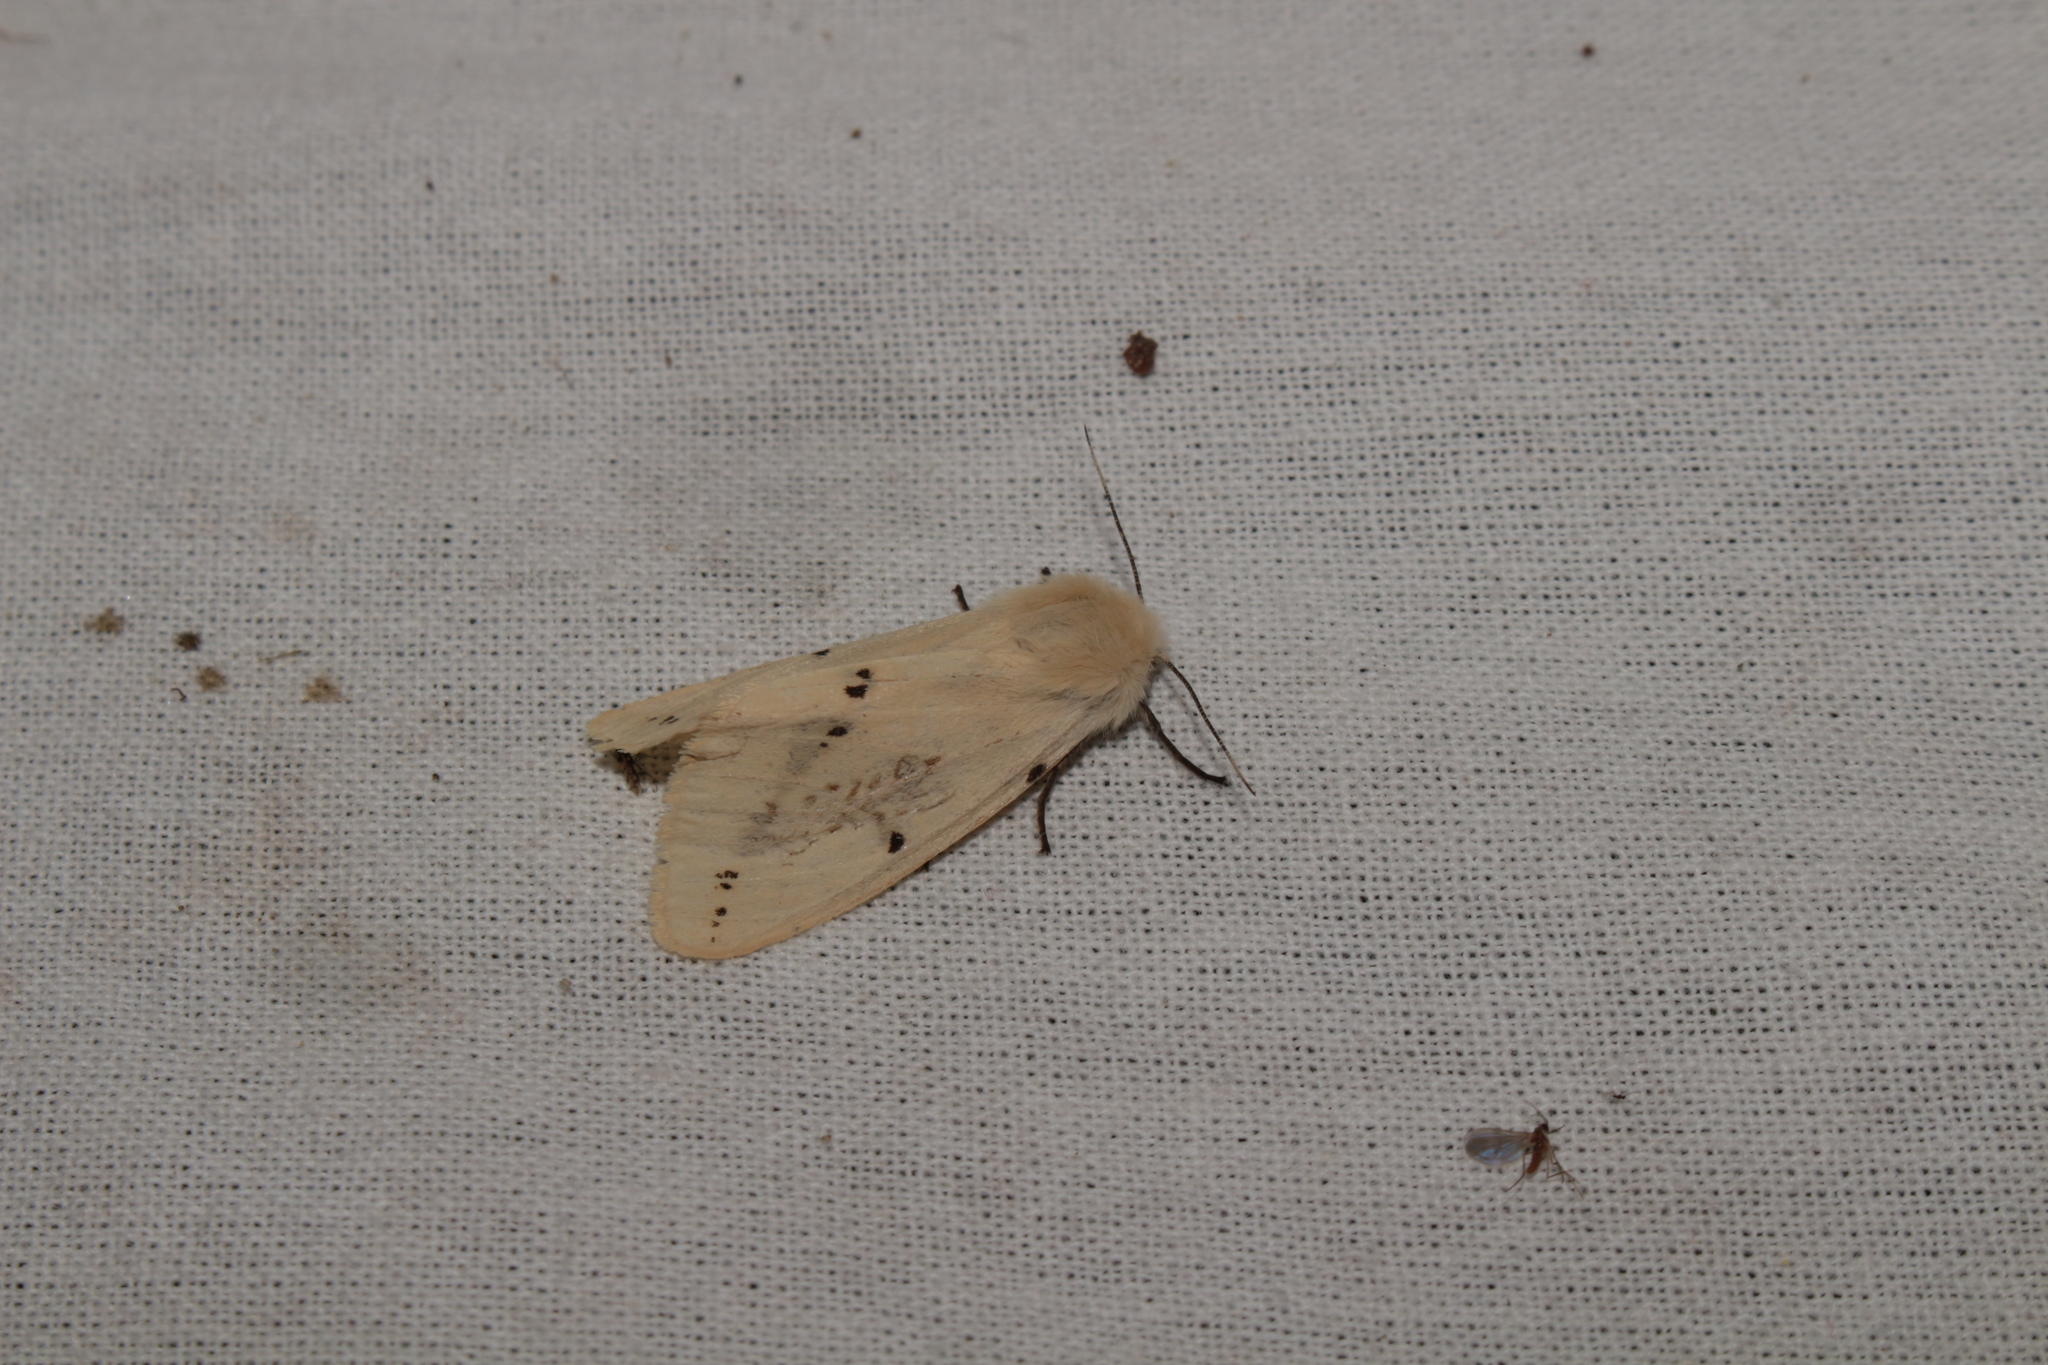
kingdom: Animalia
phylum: Arthropoda
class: Insecta
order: Lepidoptera
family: Erebidae
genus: Spilarctia
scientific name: Spilarctia lutea
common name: Buff ermine
